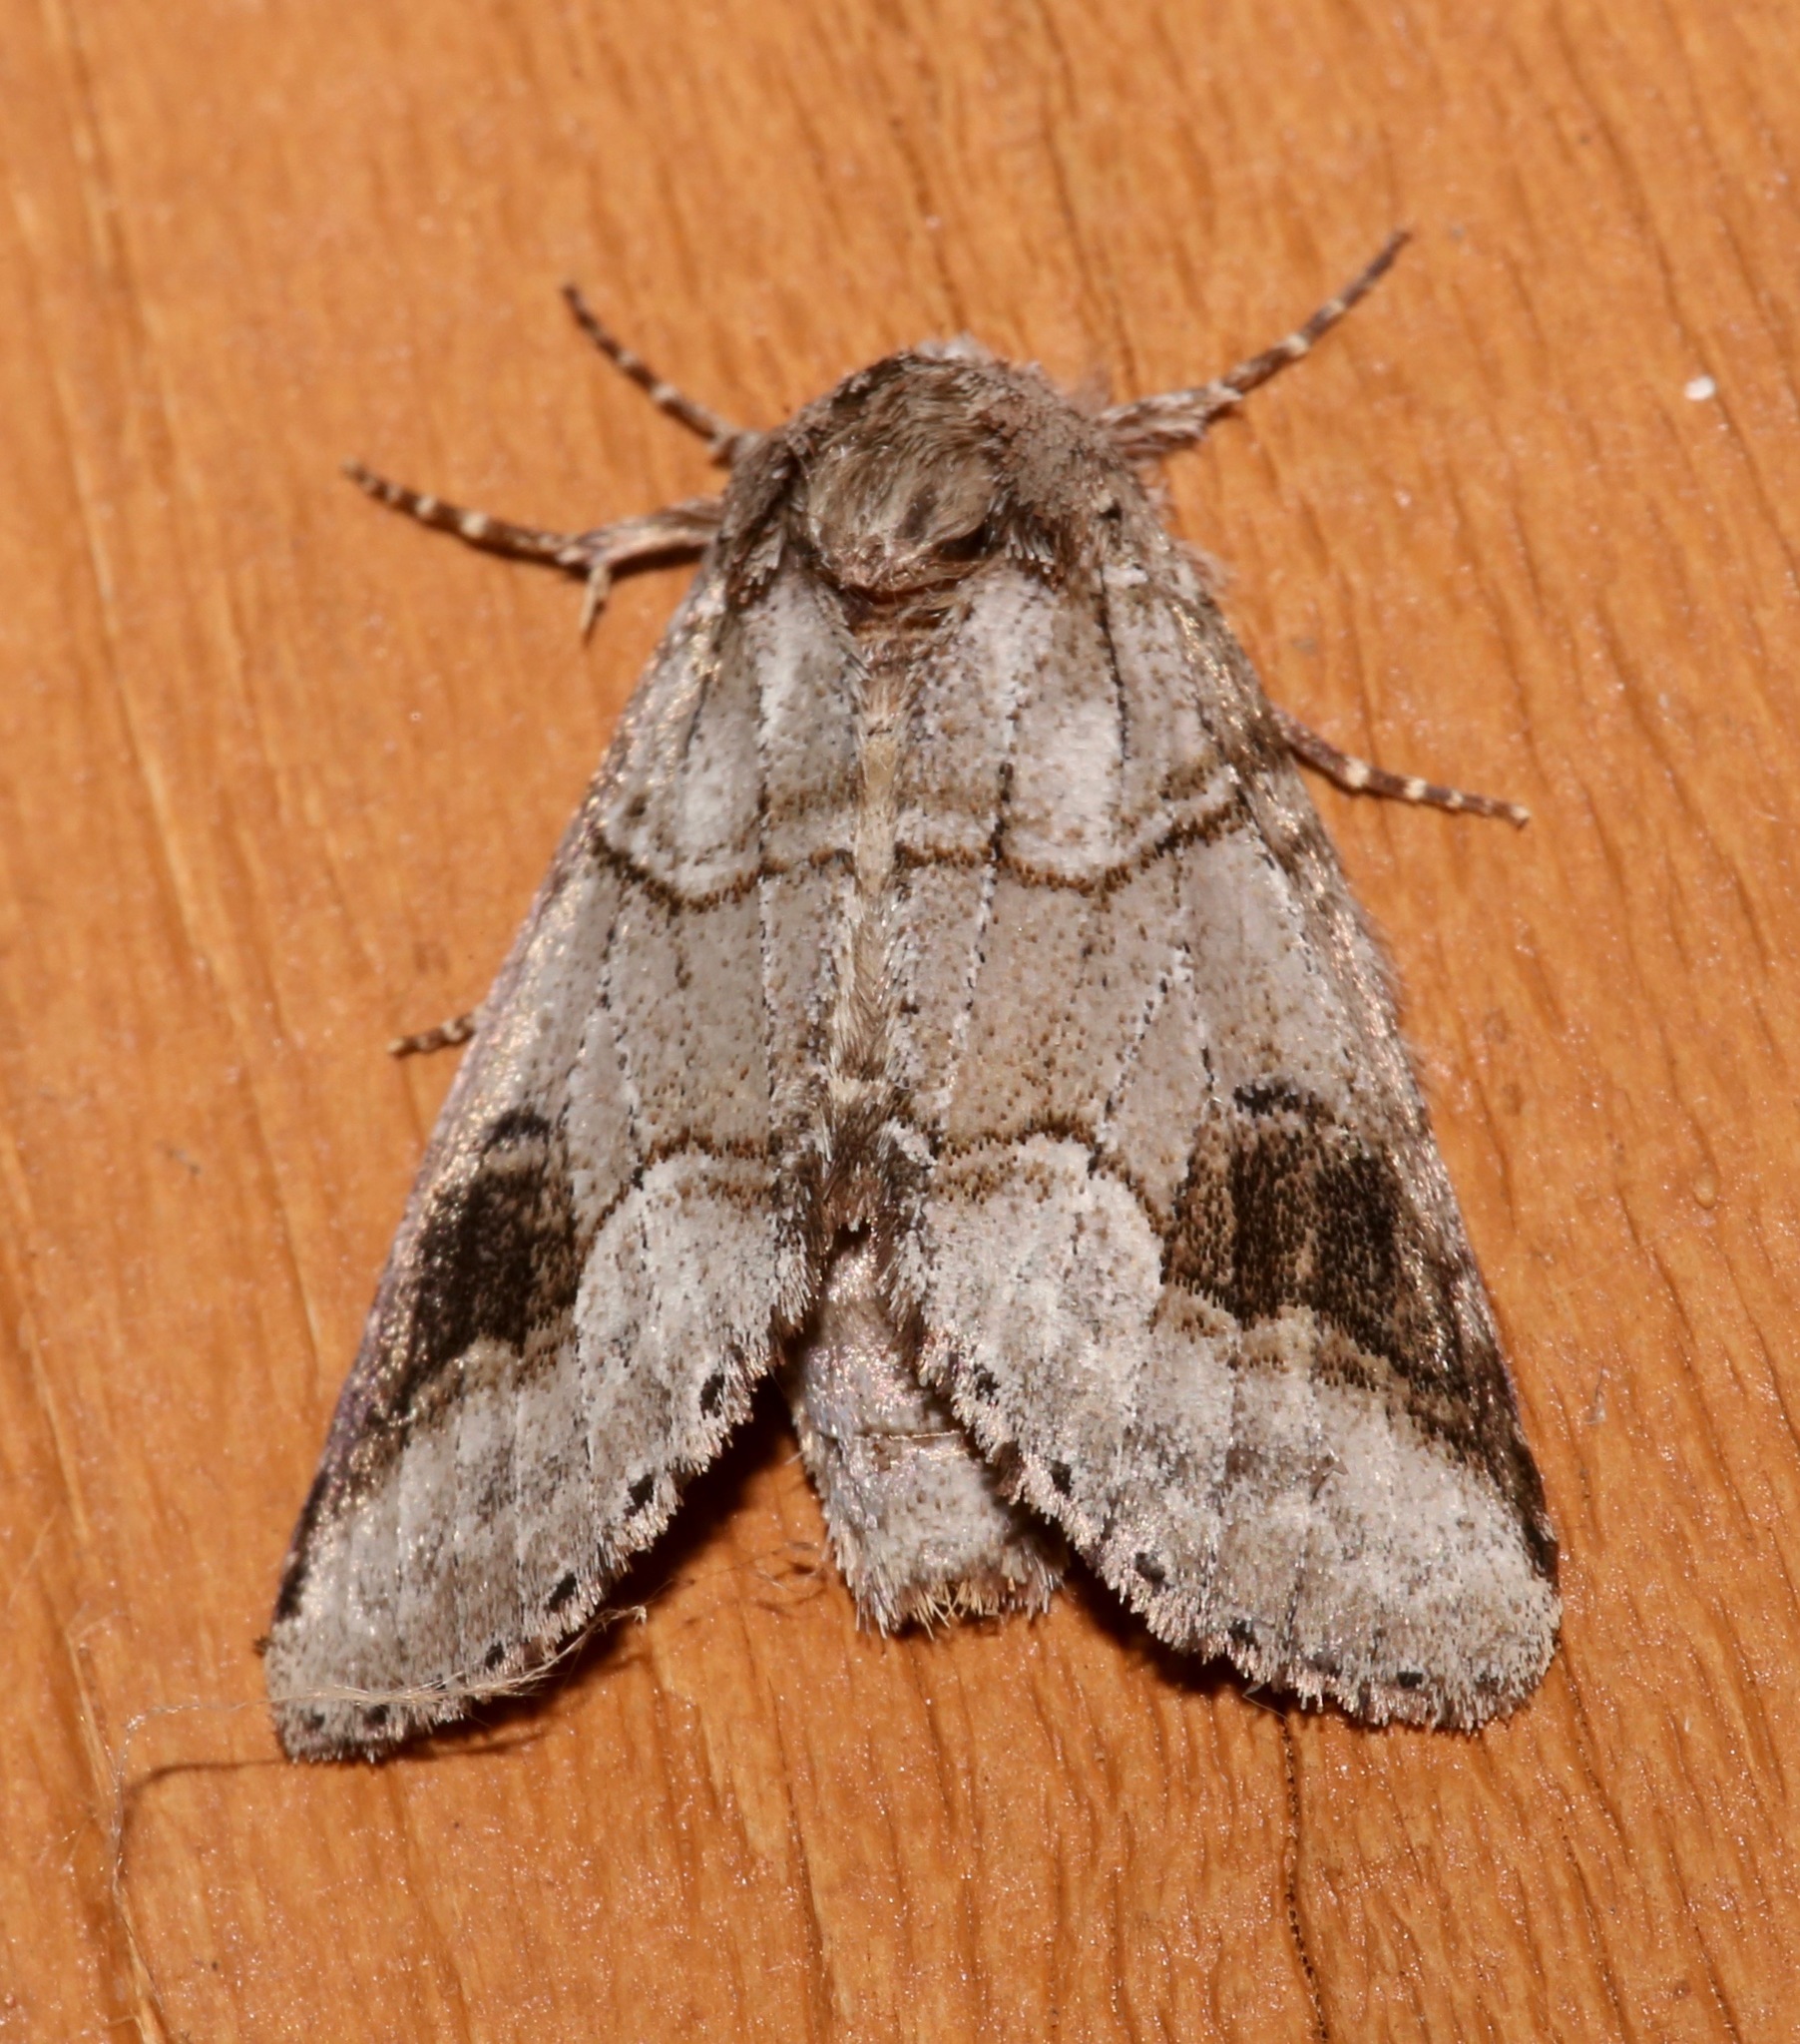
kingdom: Animalia
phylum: Arthropoda
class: Insecta
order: Lepidoptera
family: Notodontidae
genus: Lochmaeus
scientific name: Lochmaeus bilineata
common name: Double-lined prominent
